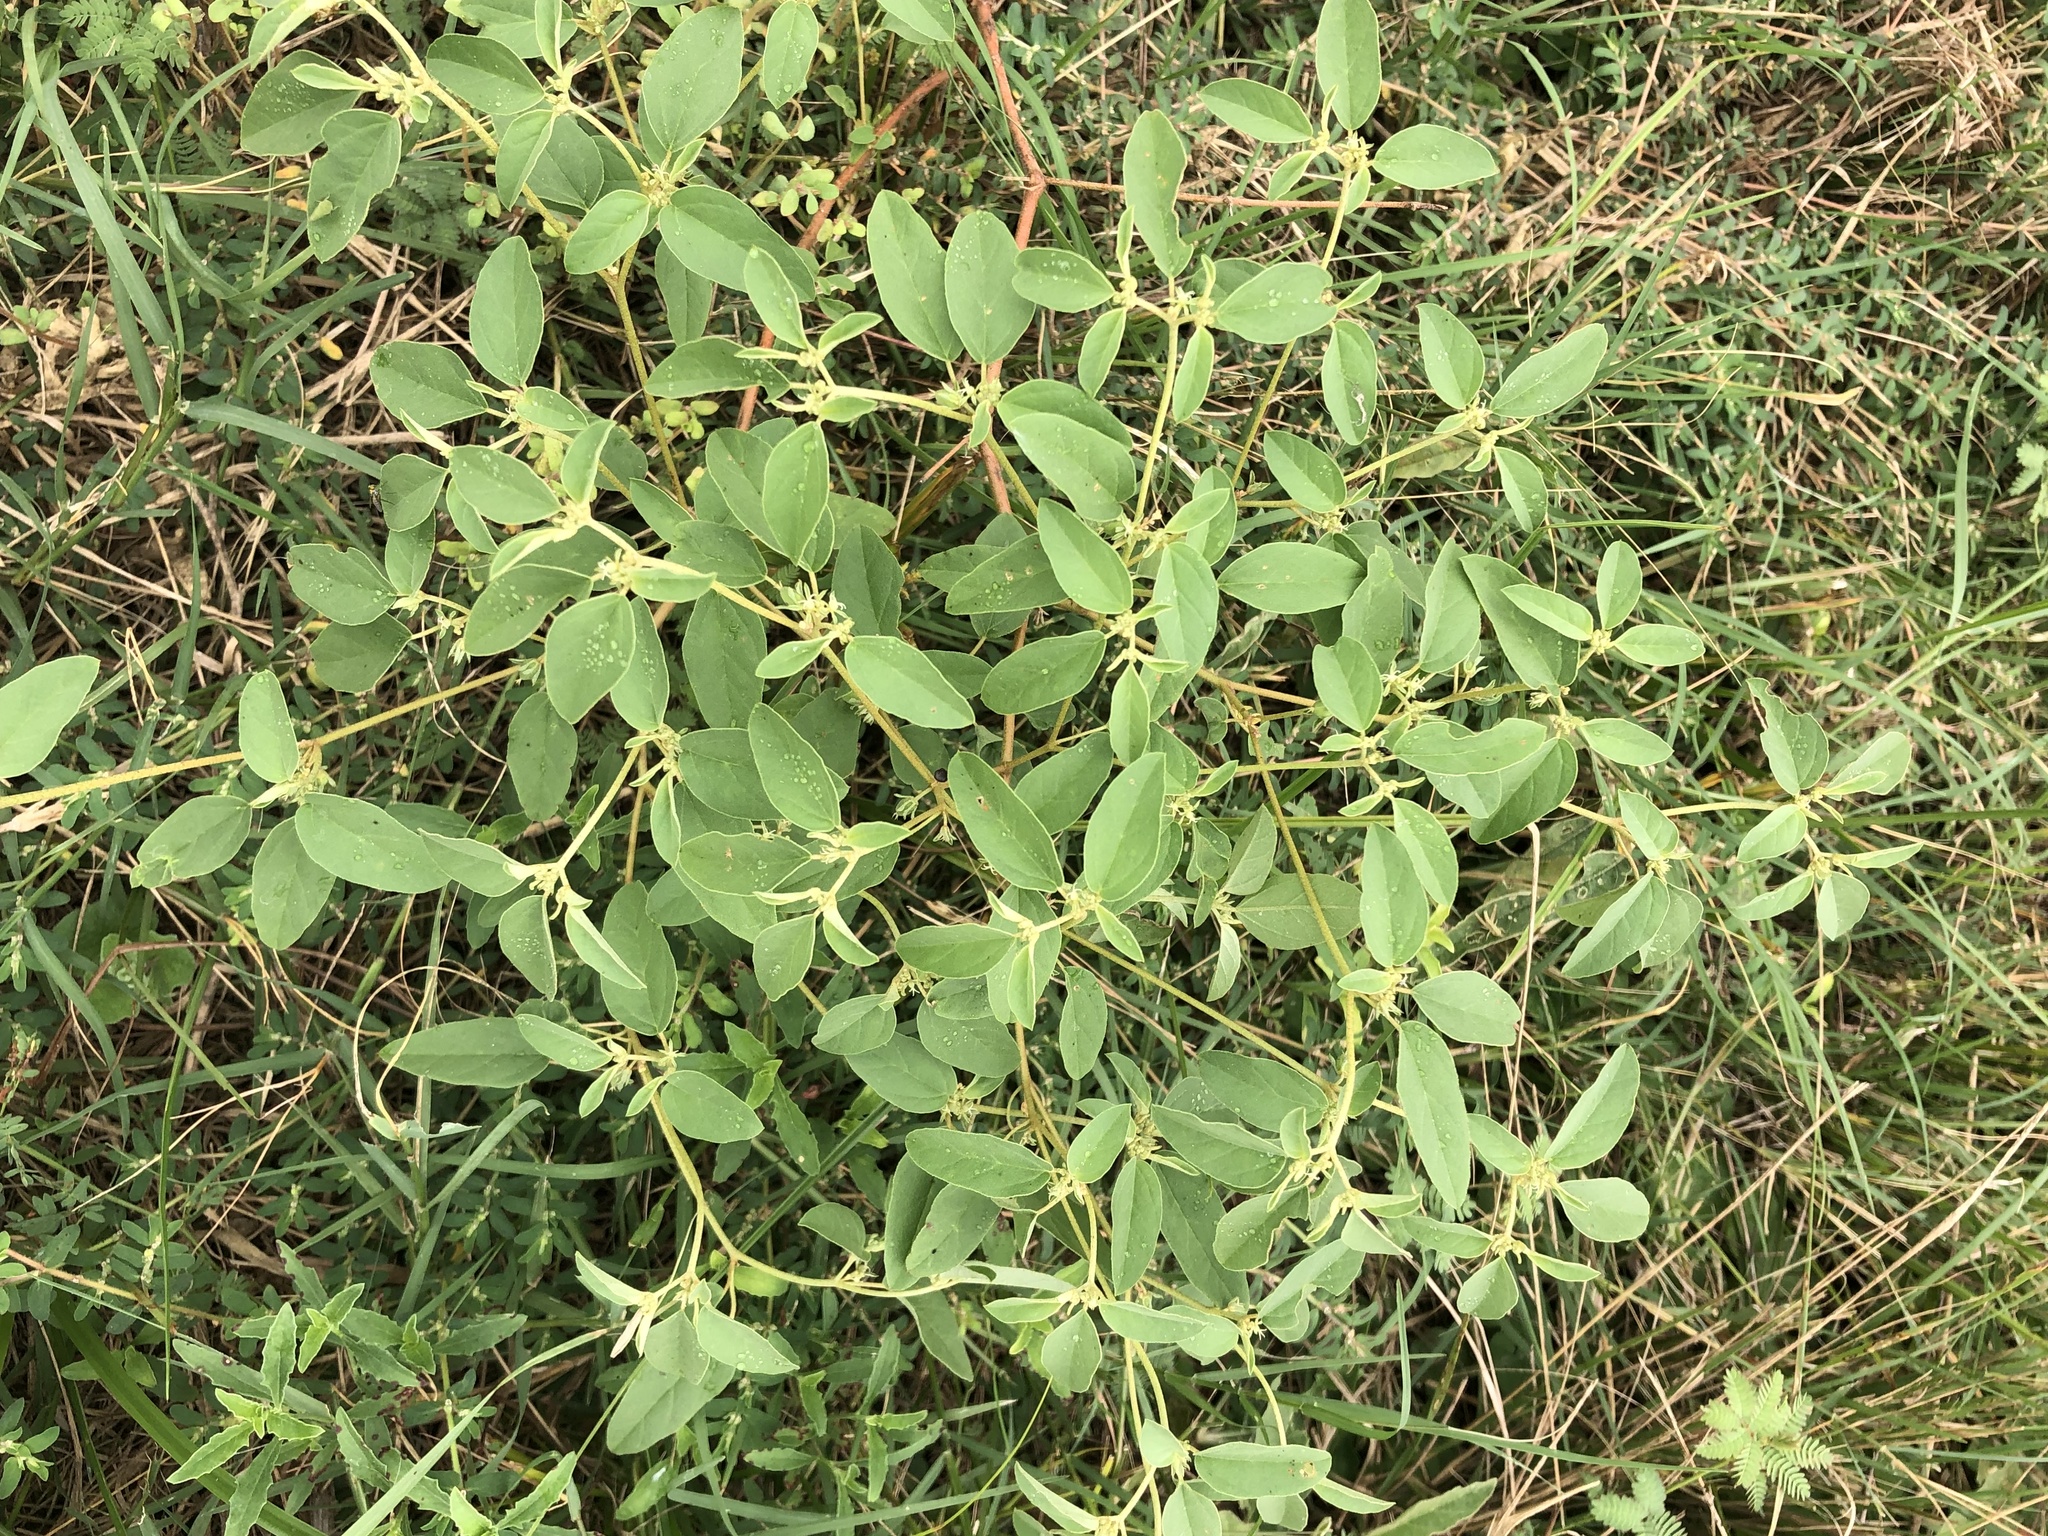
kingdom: Plantae
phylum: Tracheophyta
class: Magnoliopsida
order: Malpighiales
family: Euphorbiaceae
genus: Croton
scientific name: Croton monanthogynus
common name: One-seed croton
